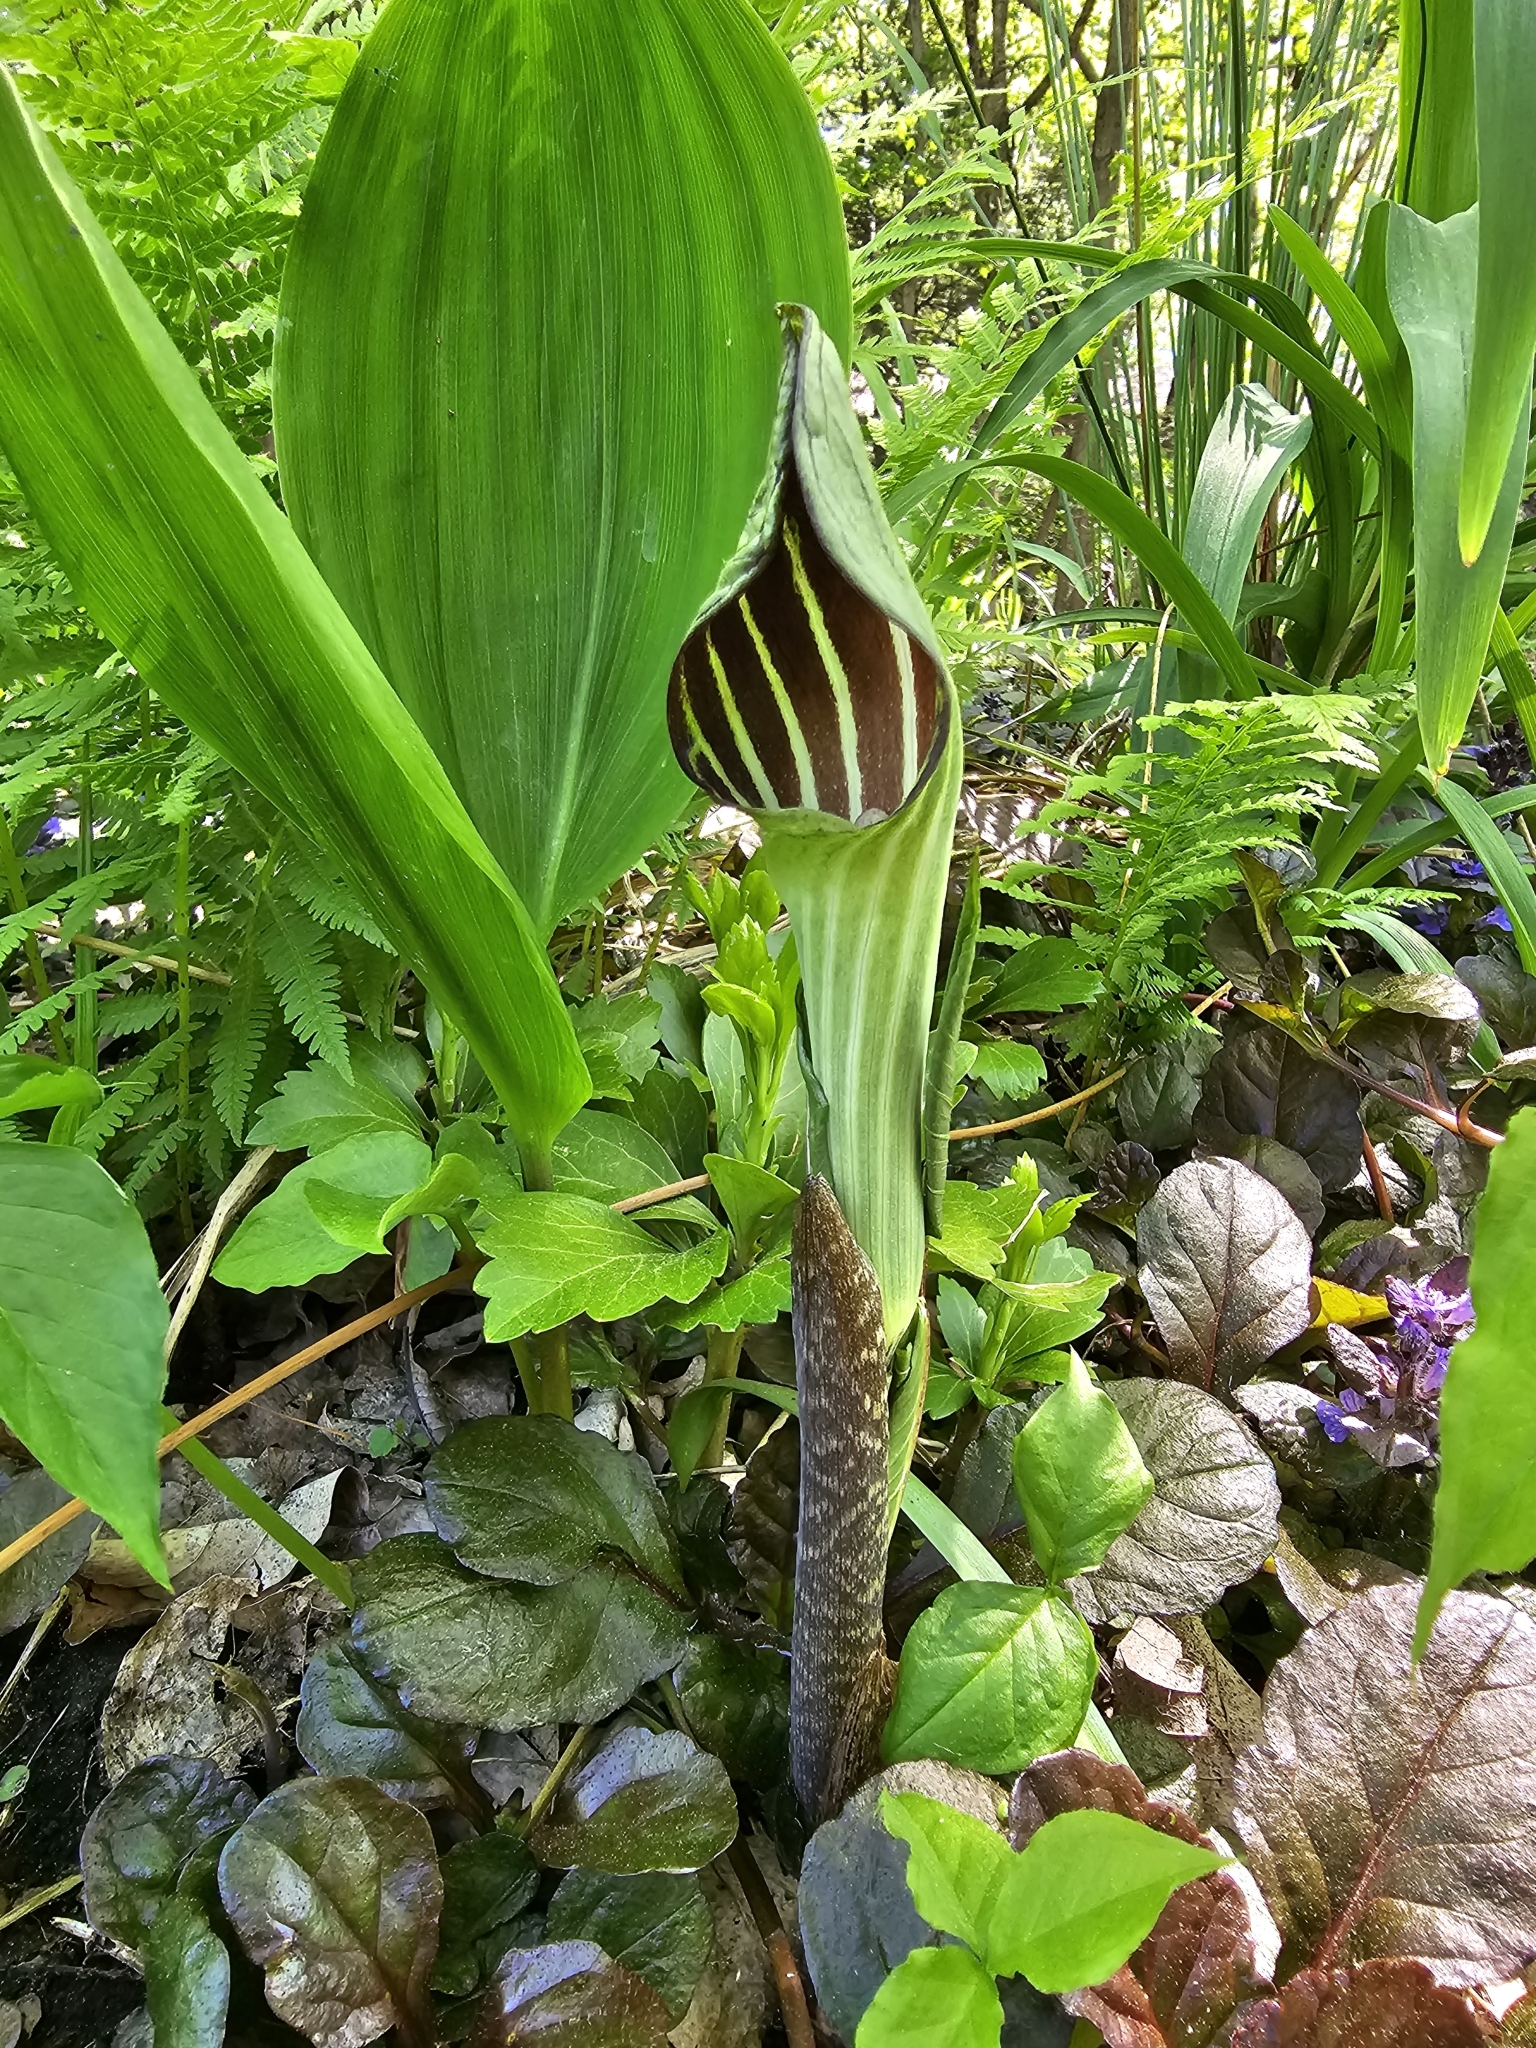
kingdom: Plantae
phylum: Tracheophyta
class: Liliopsida
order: Alismatales
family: Araceae
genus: Arisaema
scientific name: Arisaema triphyllum
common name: Jack-in-the-pulpit
